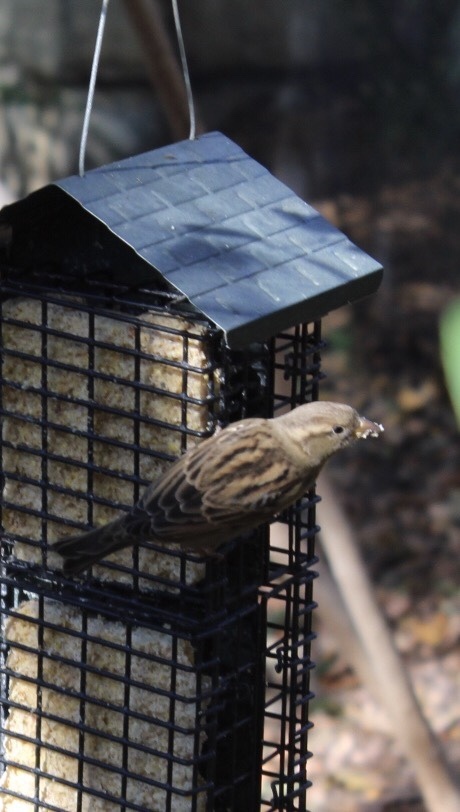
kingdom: Animalia
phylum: Chordata
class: Aves
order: Passeriformes
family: Passeridae
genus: Passer
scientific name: Passer domesticus
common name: House sparrow
